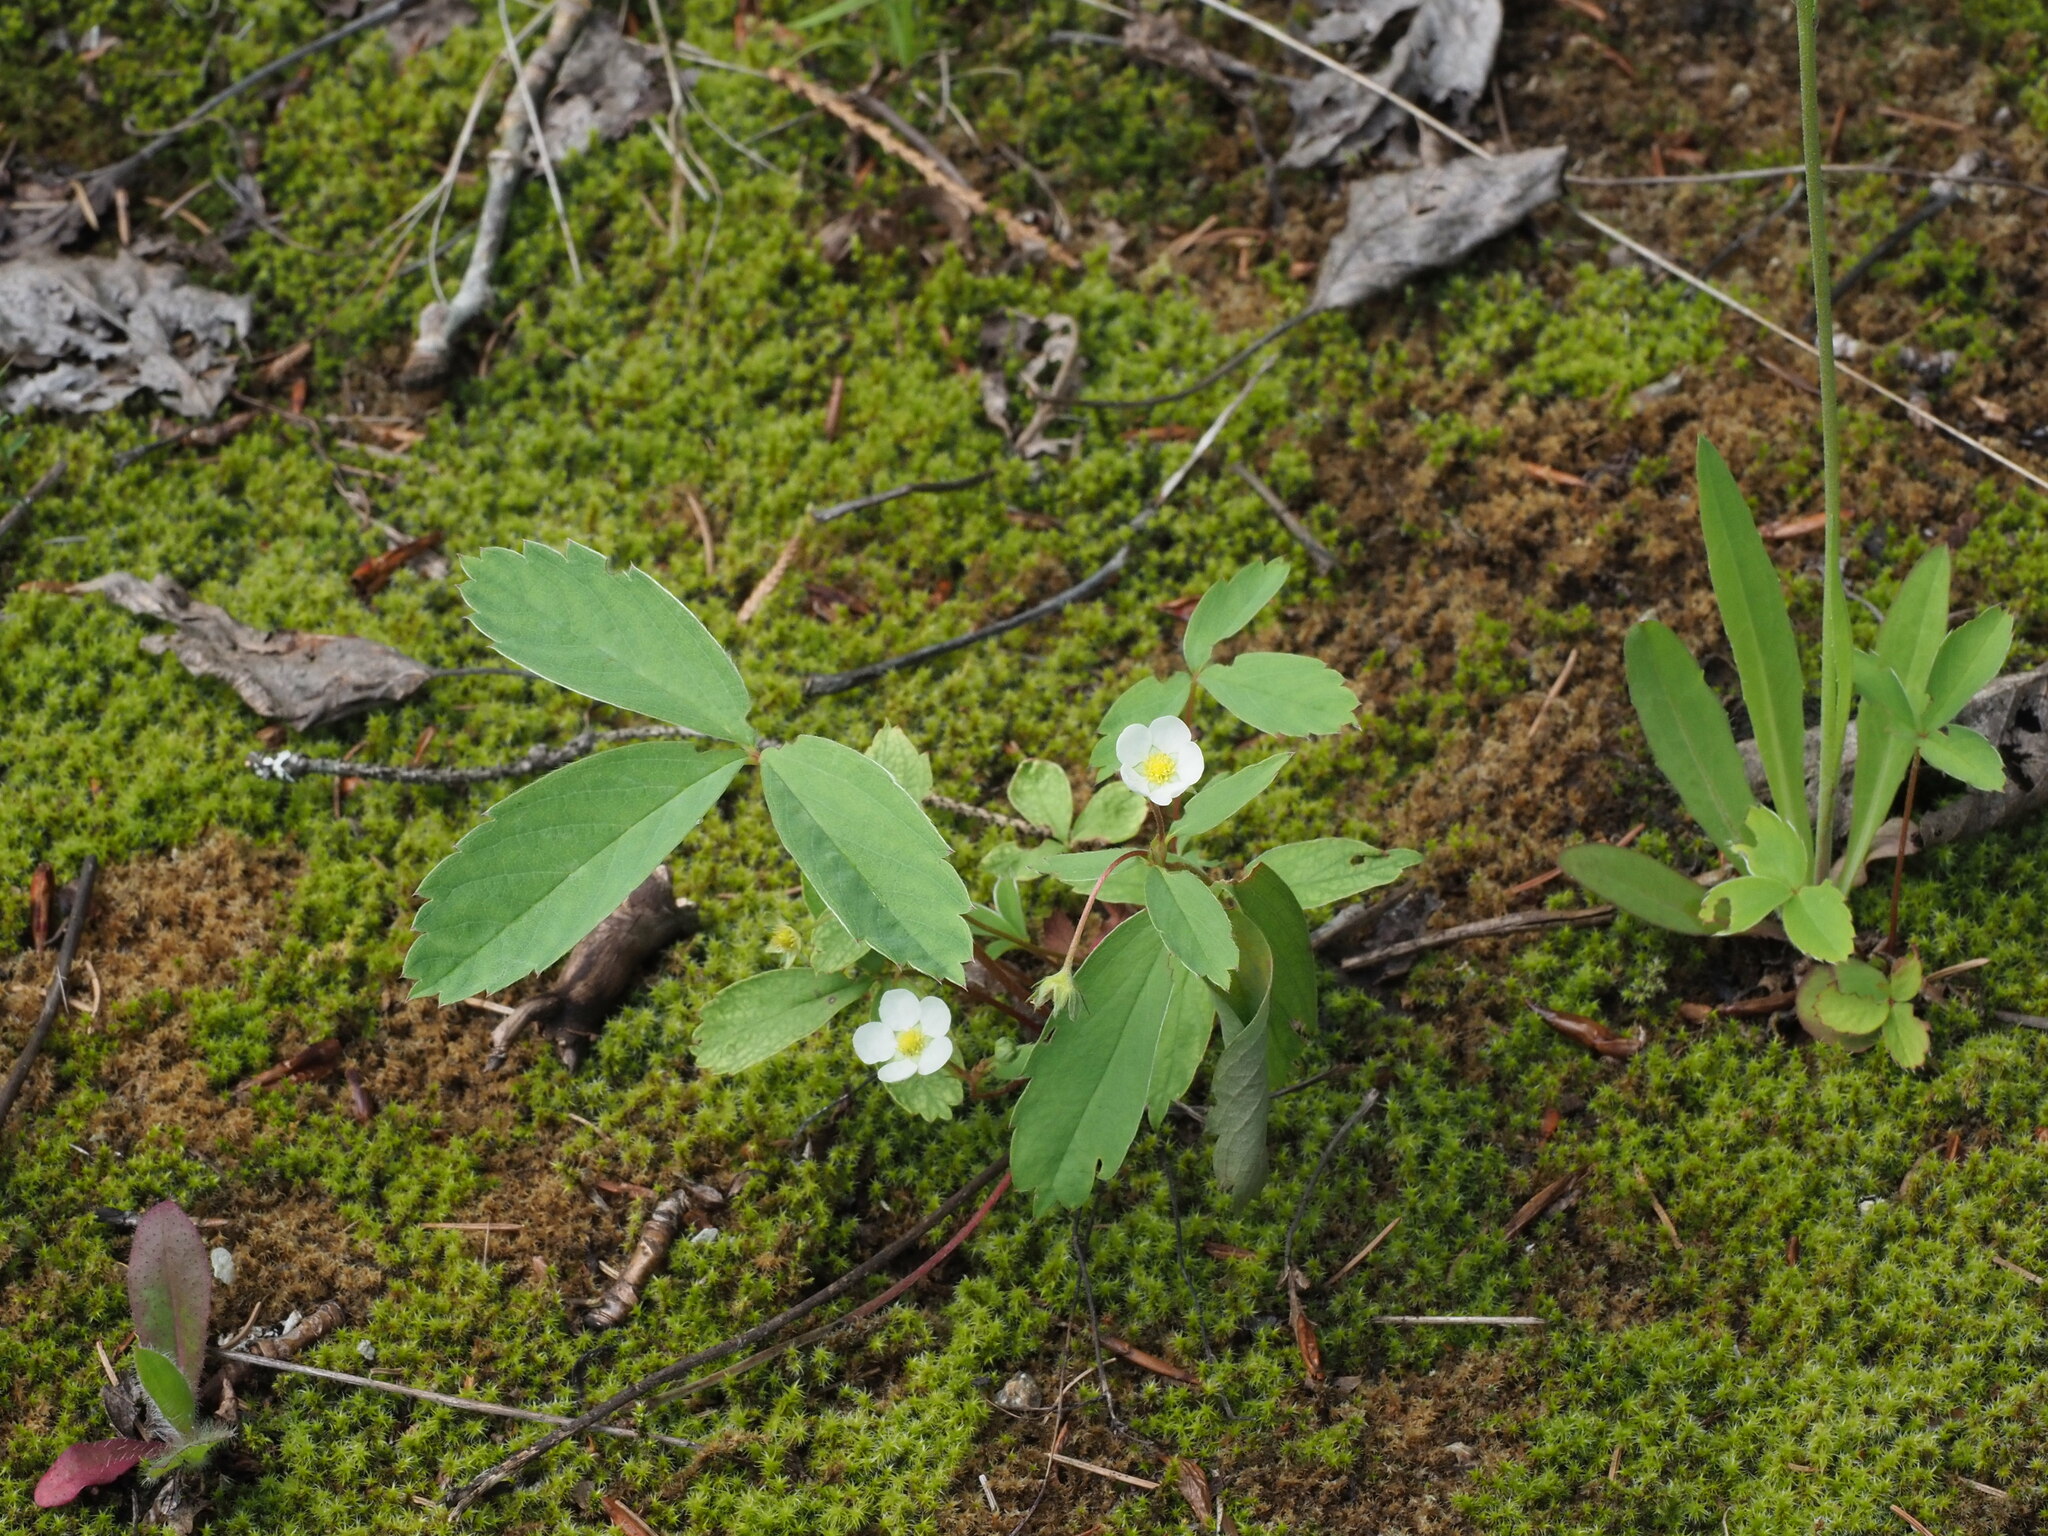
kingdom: Plantae
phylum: Tracheophyta
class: Magnoliopsida
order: Rosales
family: Rosaceae
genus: Fragaria
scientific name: Fragaria virginiana
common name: Thickleaved wild strawberry
